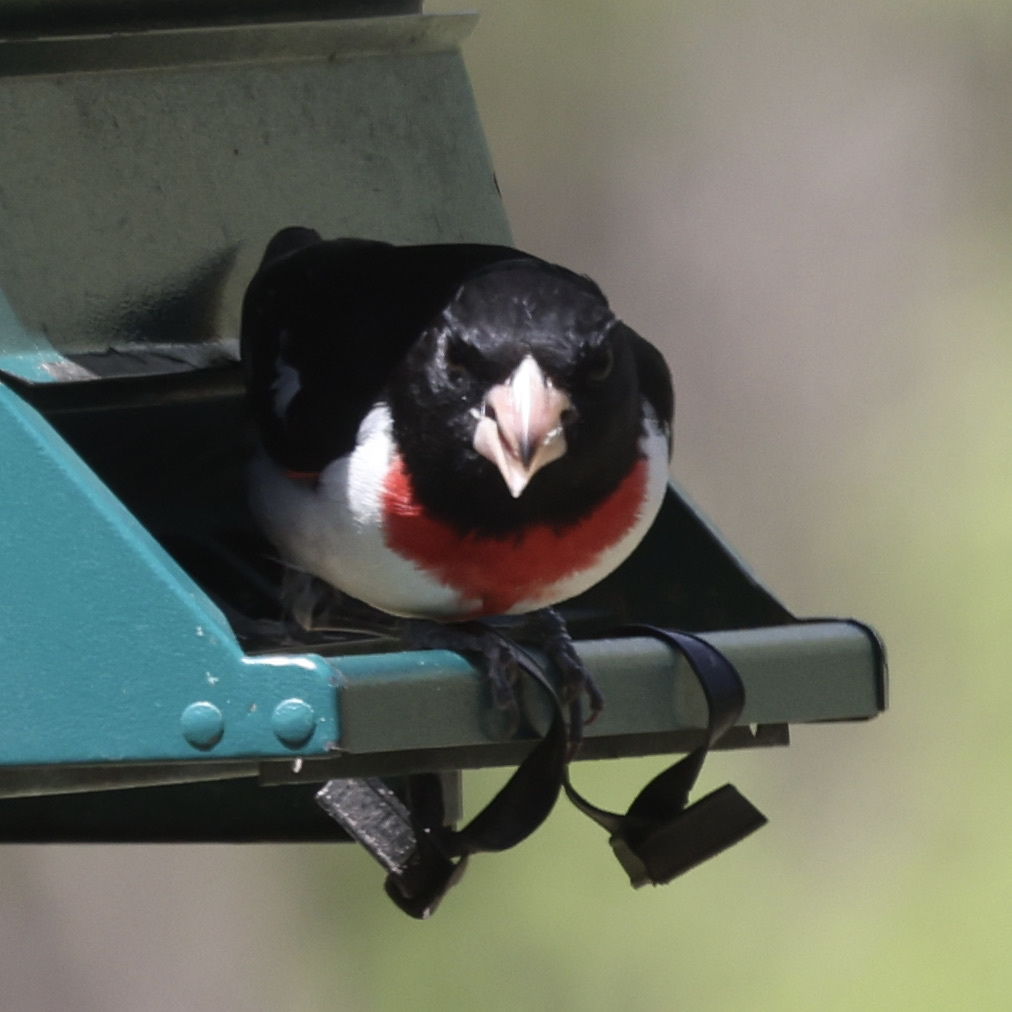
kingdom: Animalia
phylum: Chordata
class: Aves
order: Passeriformes
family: Cardinalidae
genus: Pheucticus
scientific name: Pheucticus ludovicianus
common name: Rose-breasted grosbeak
